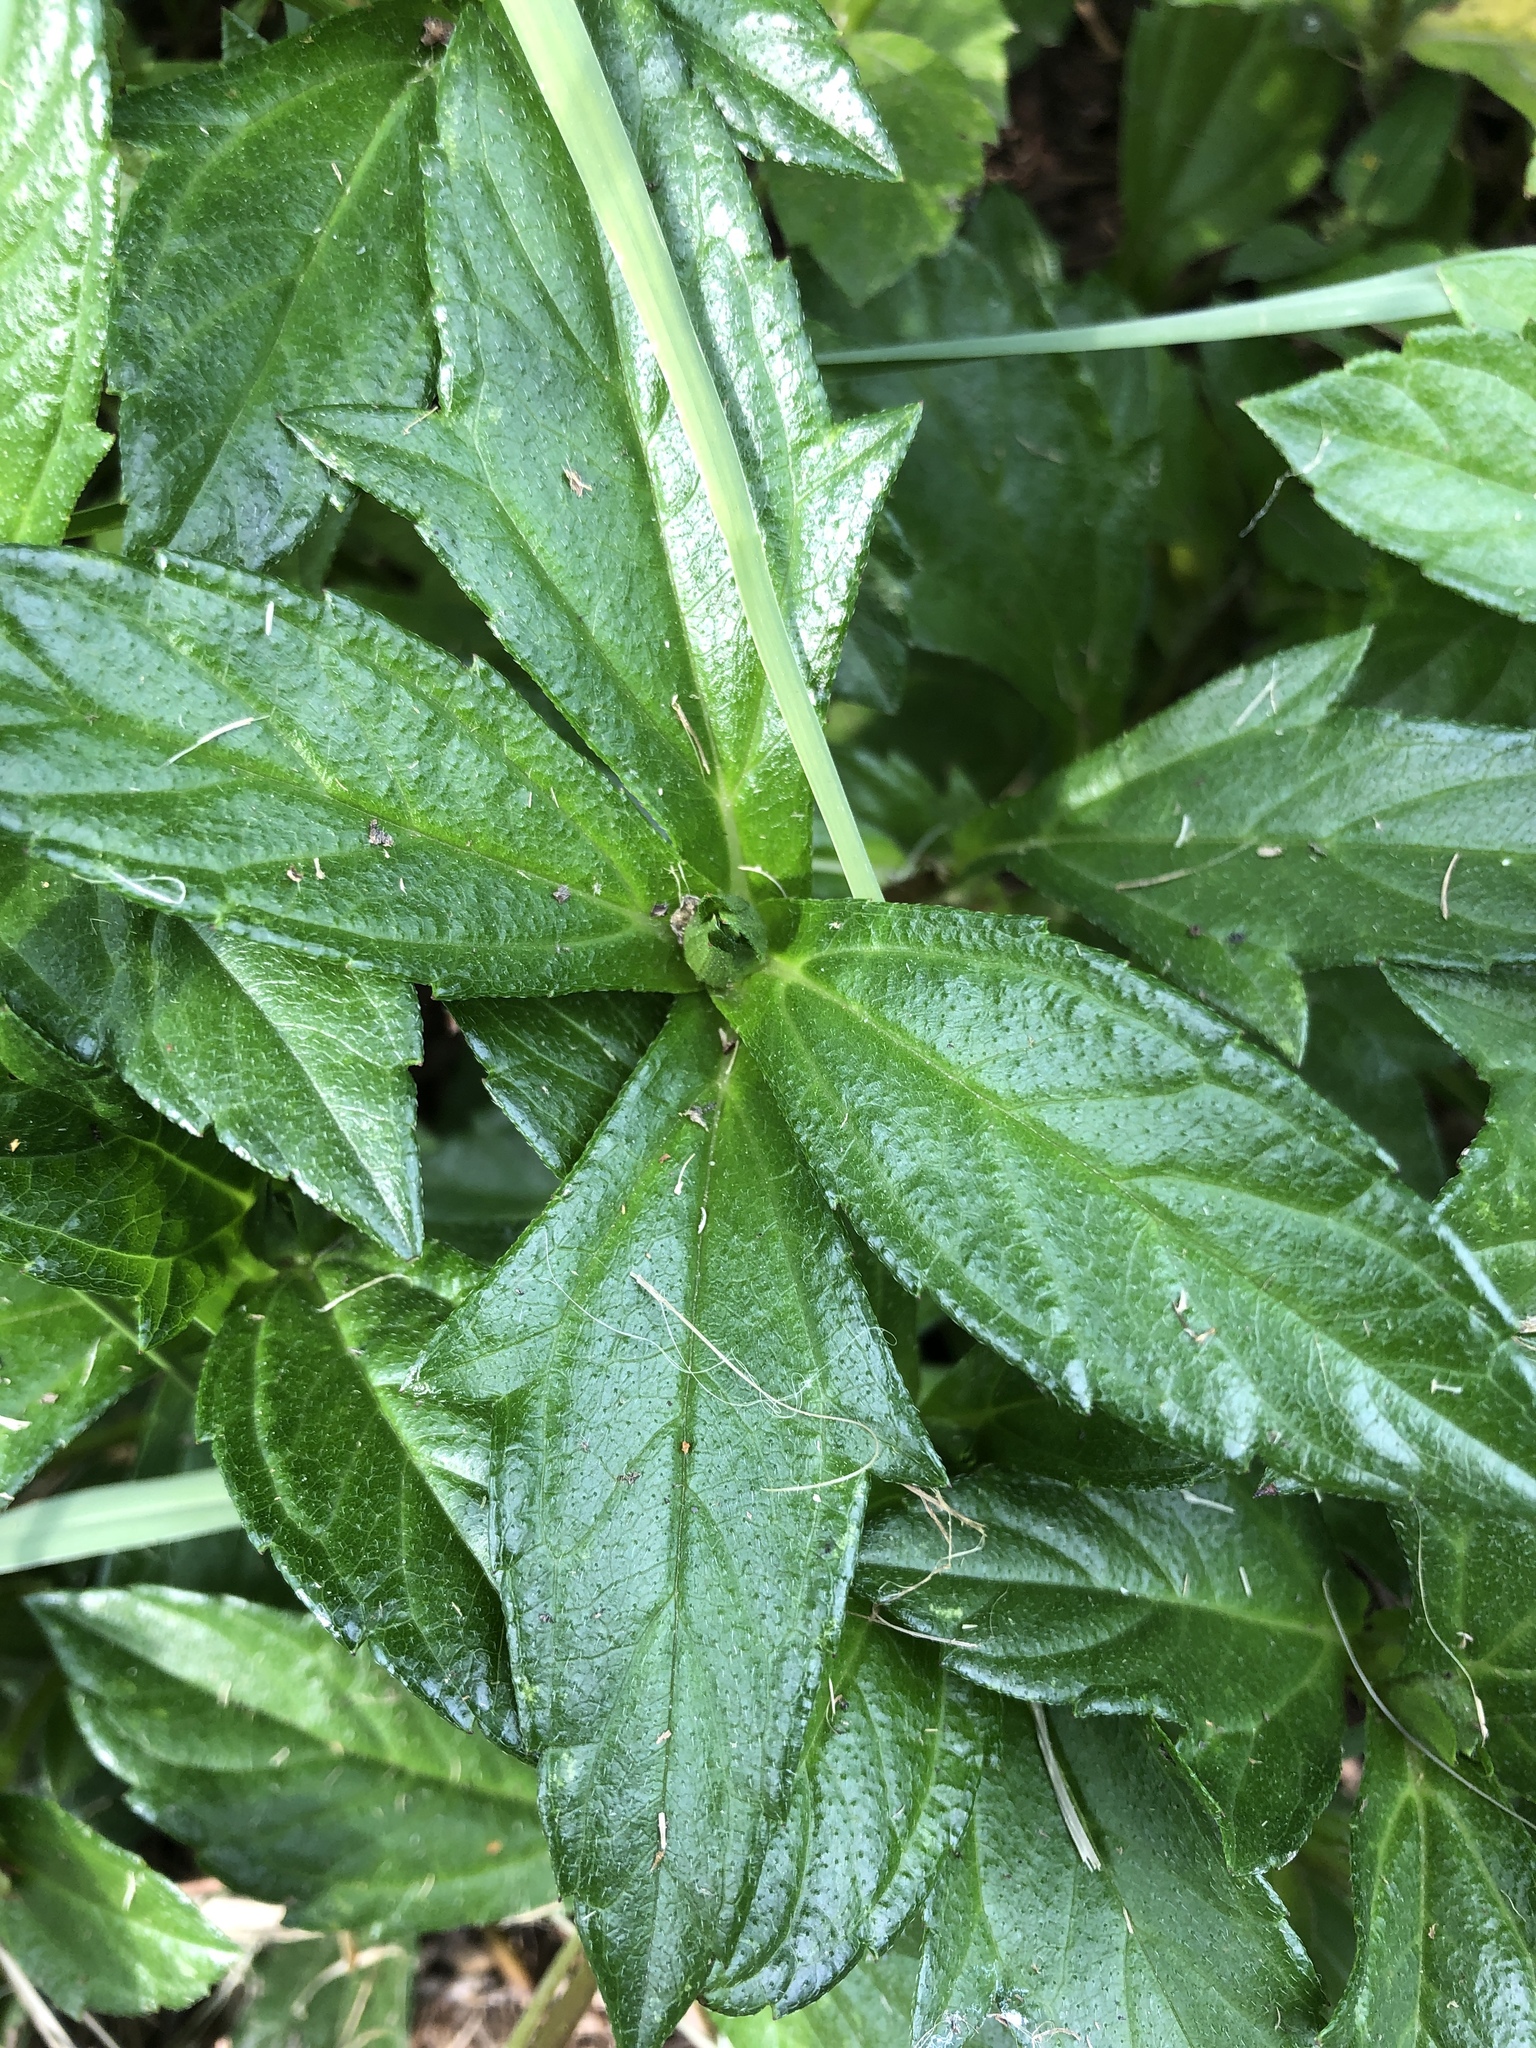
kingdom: Plantae
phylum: Tracheophyta
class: Magnoliopsida
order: Asterales
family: Asteraceae
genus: Sphagneticola
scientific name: Sphagneticola trilobata
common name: Bay biscayne creeping-oxeye
